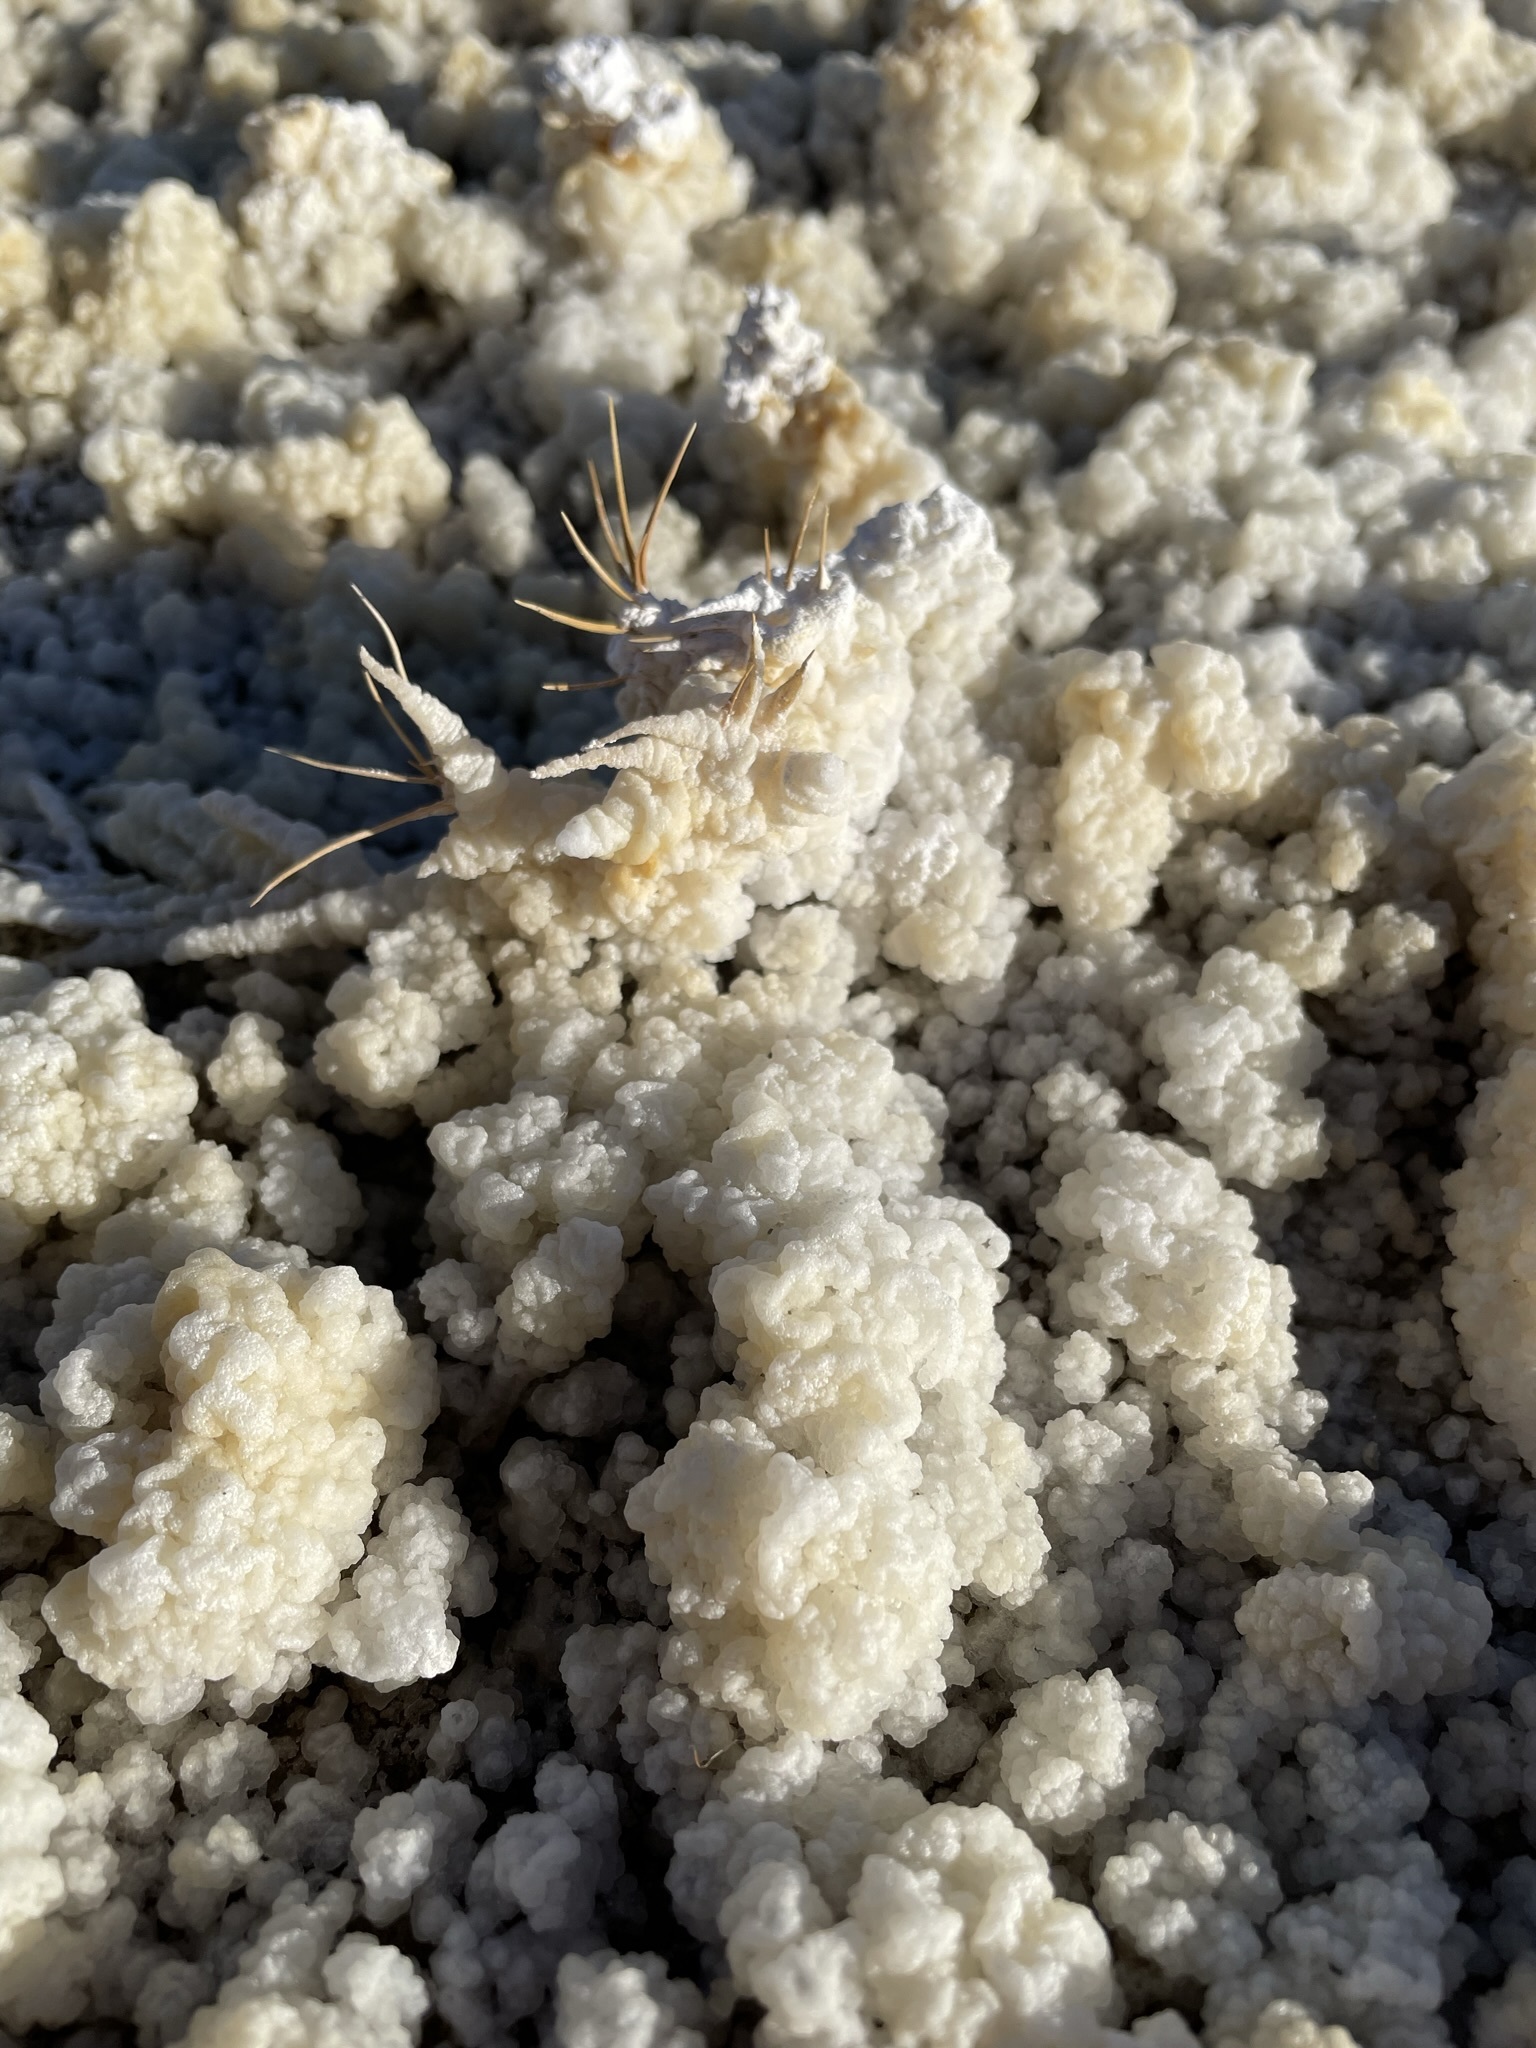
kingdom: Plantae
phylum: Tracheophyta
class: Liliopsida
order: Poales
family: Poaceae
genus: Distichlis
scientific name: Distichlis spicata
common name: Saltgrass
